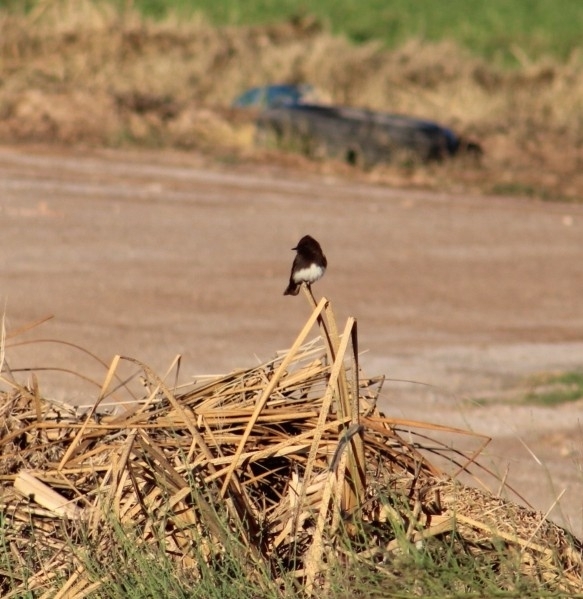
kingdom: Animalia
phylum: Chordata
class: Aves
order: Passeriformes
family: Tyrannidae
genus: Sayornis
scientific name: Sayornis nigricans
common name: Black phoebe
